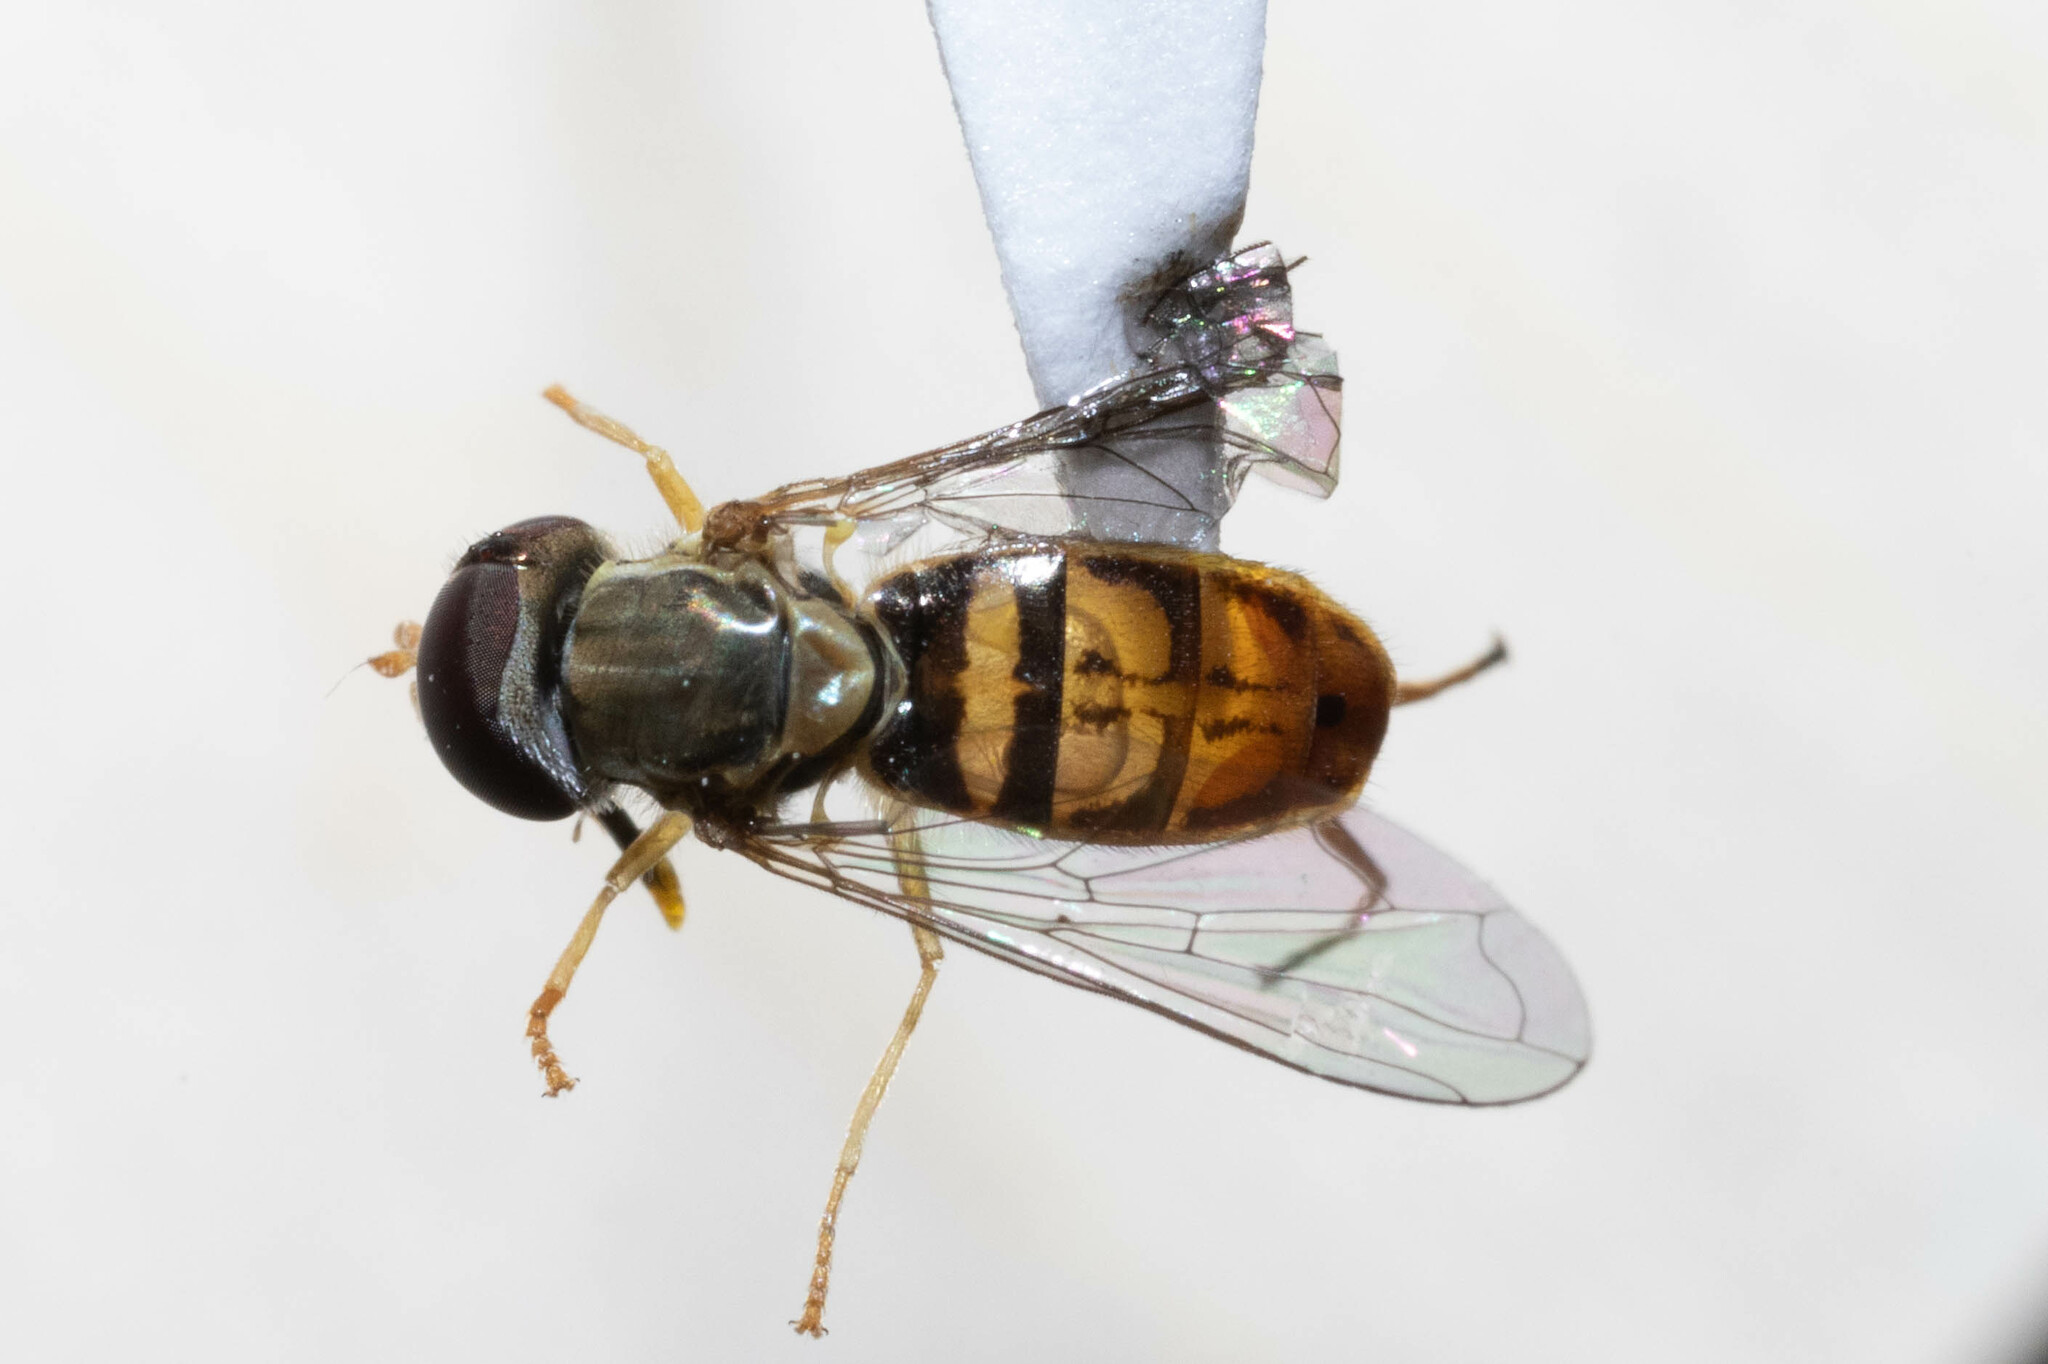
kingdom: Animalia
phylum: Arthropoda
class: Insecta
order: Diptera
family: Syrphidae
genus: Toxomerus
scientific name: Toxomerus marginatus
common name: Syrphid fly
